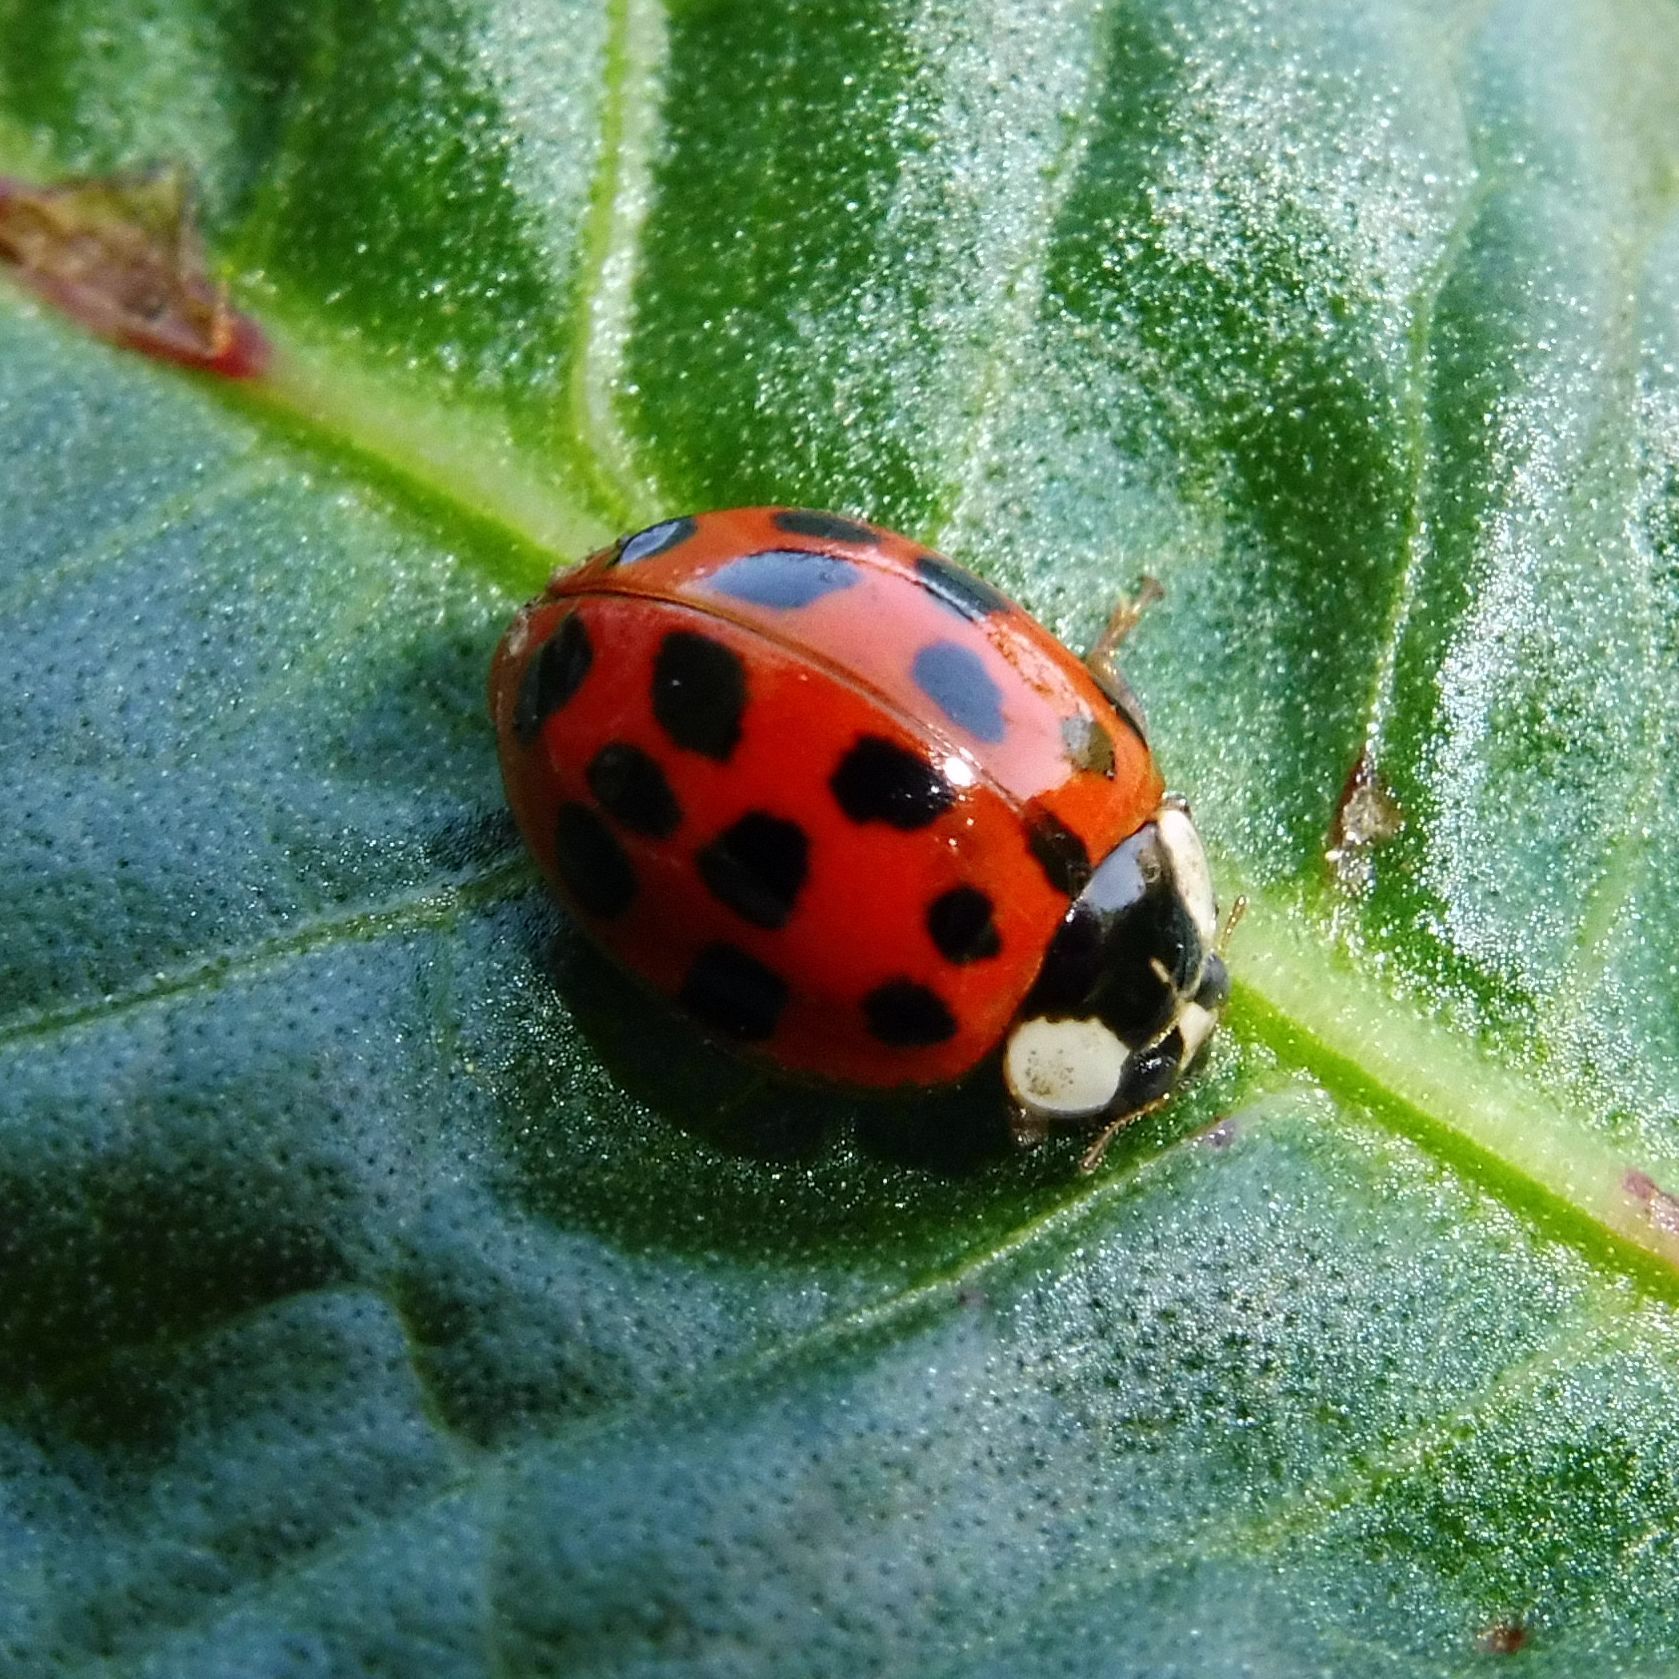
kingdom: Animalia
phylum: Arthropoda
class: Insecta
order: Coleoptera
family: Coccinellidae
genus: Harmonia
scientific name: Harmonia axyridis
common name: Harlequin ladybird
